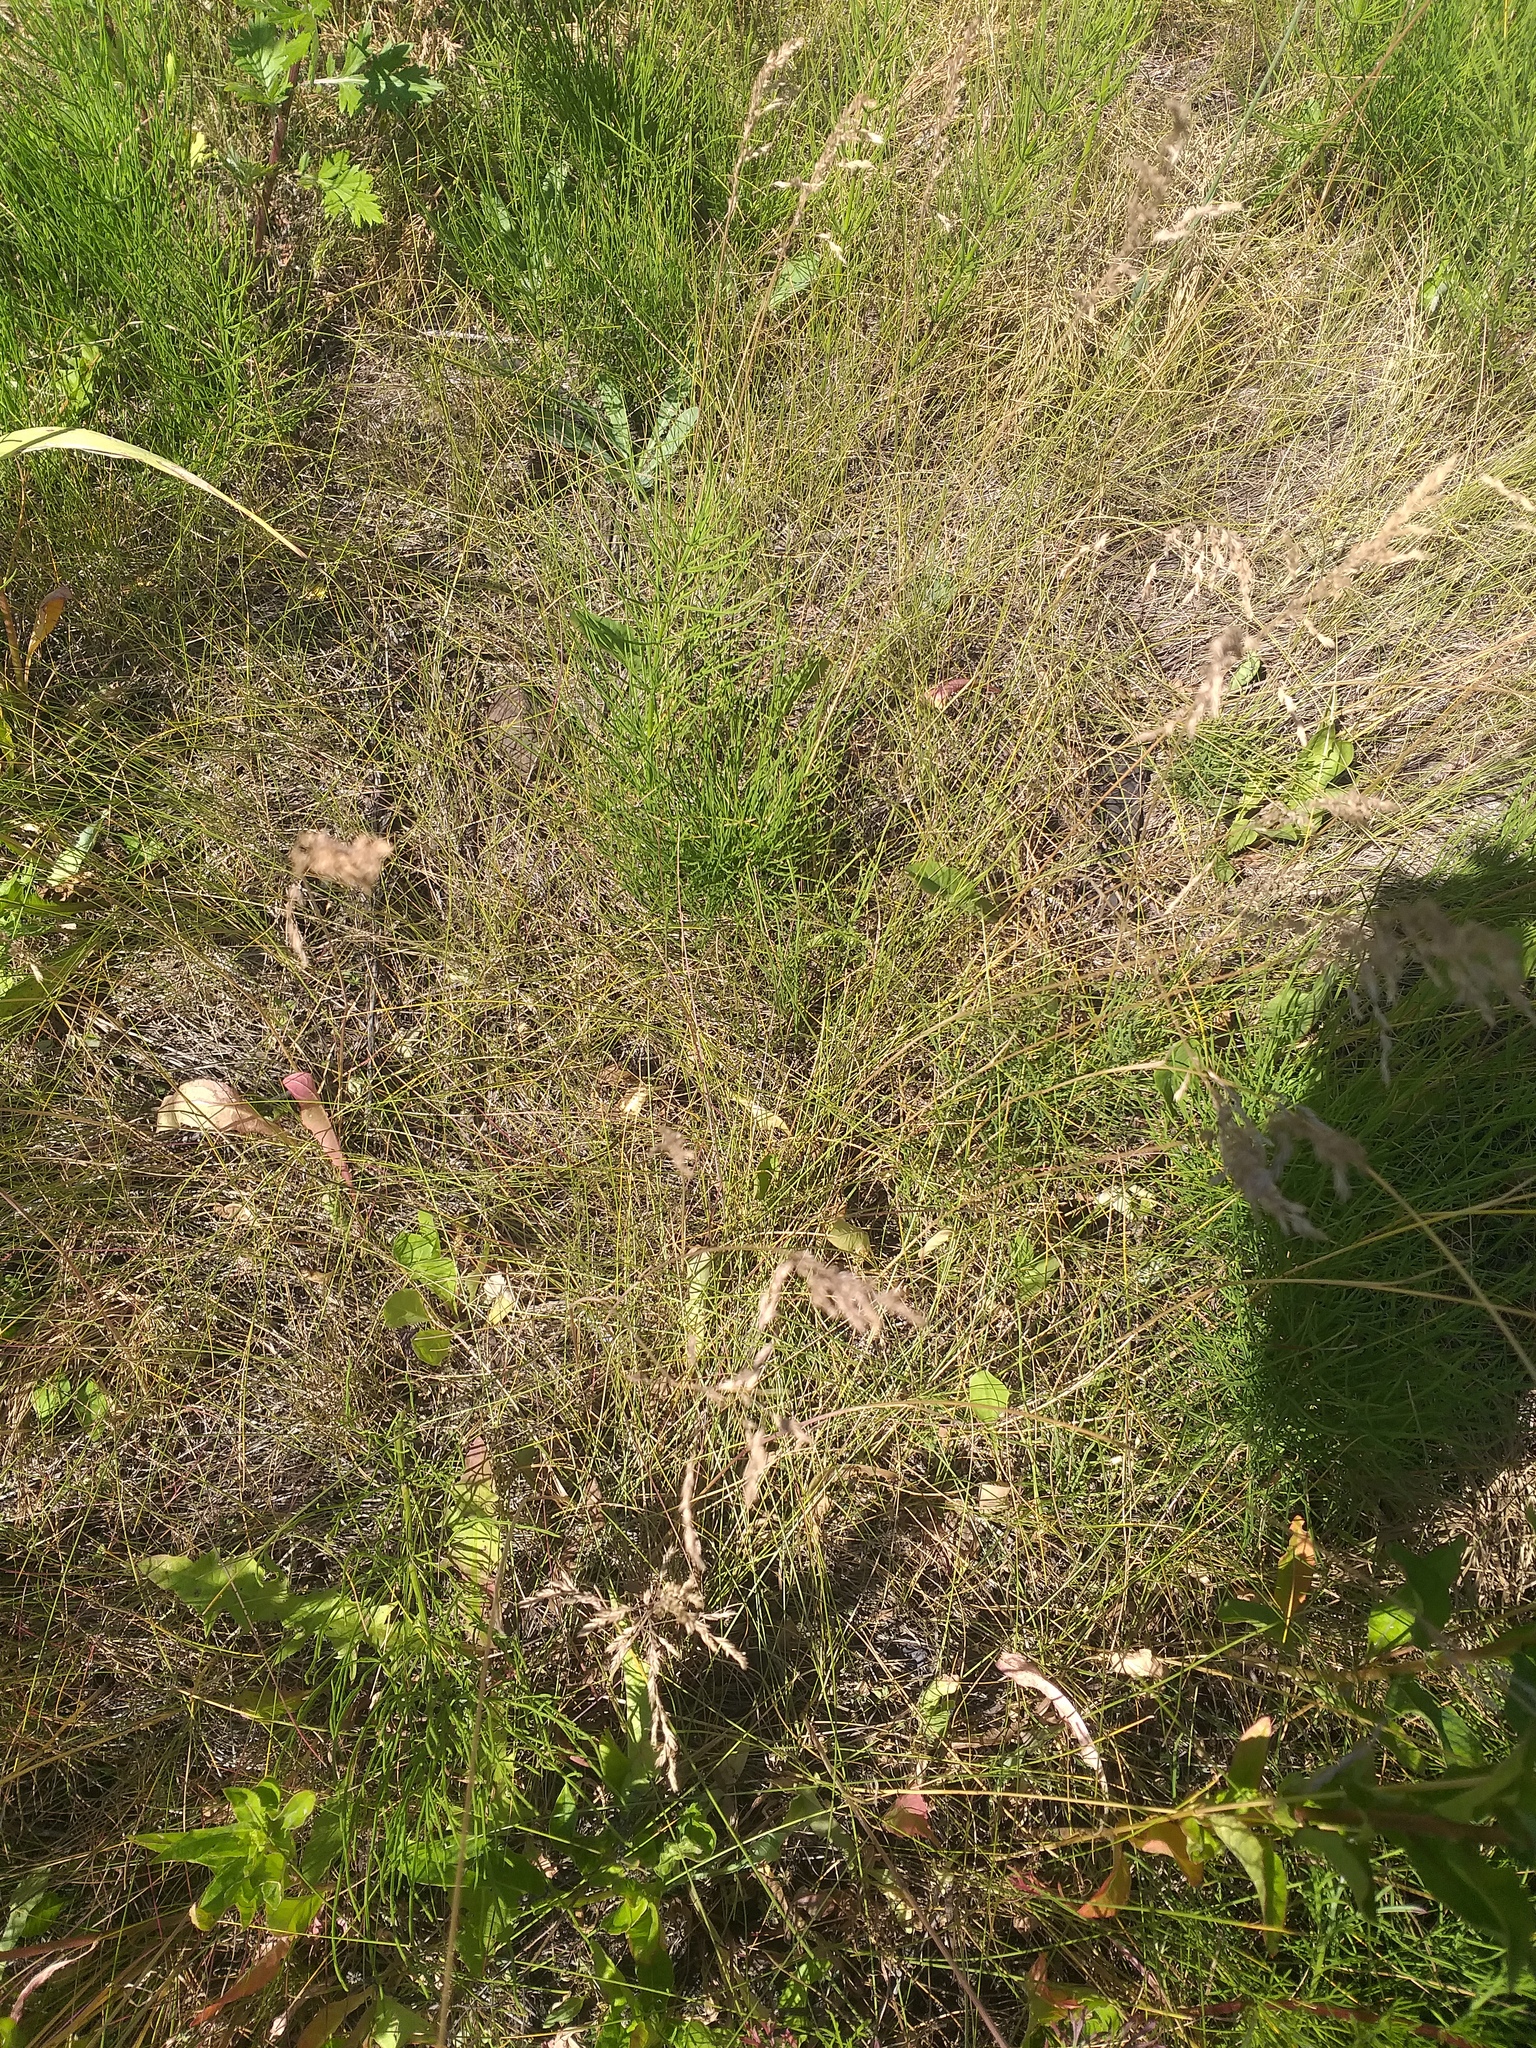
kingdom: Plantae
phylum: Tracheophyta
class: Liliopsida
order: Poales
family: Poaceae
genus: Poa
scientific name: Poa angustifolia
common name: Narrow-leaved meadow-grass
